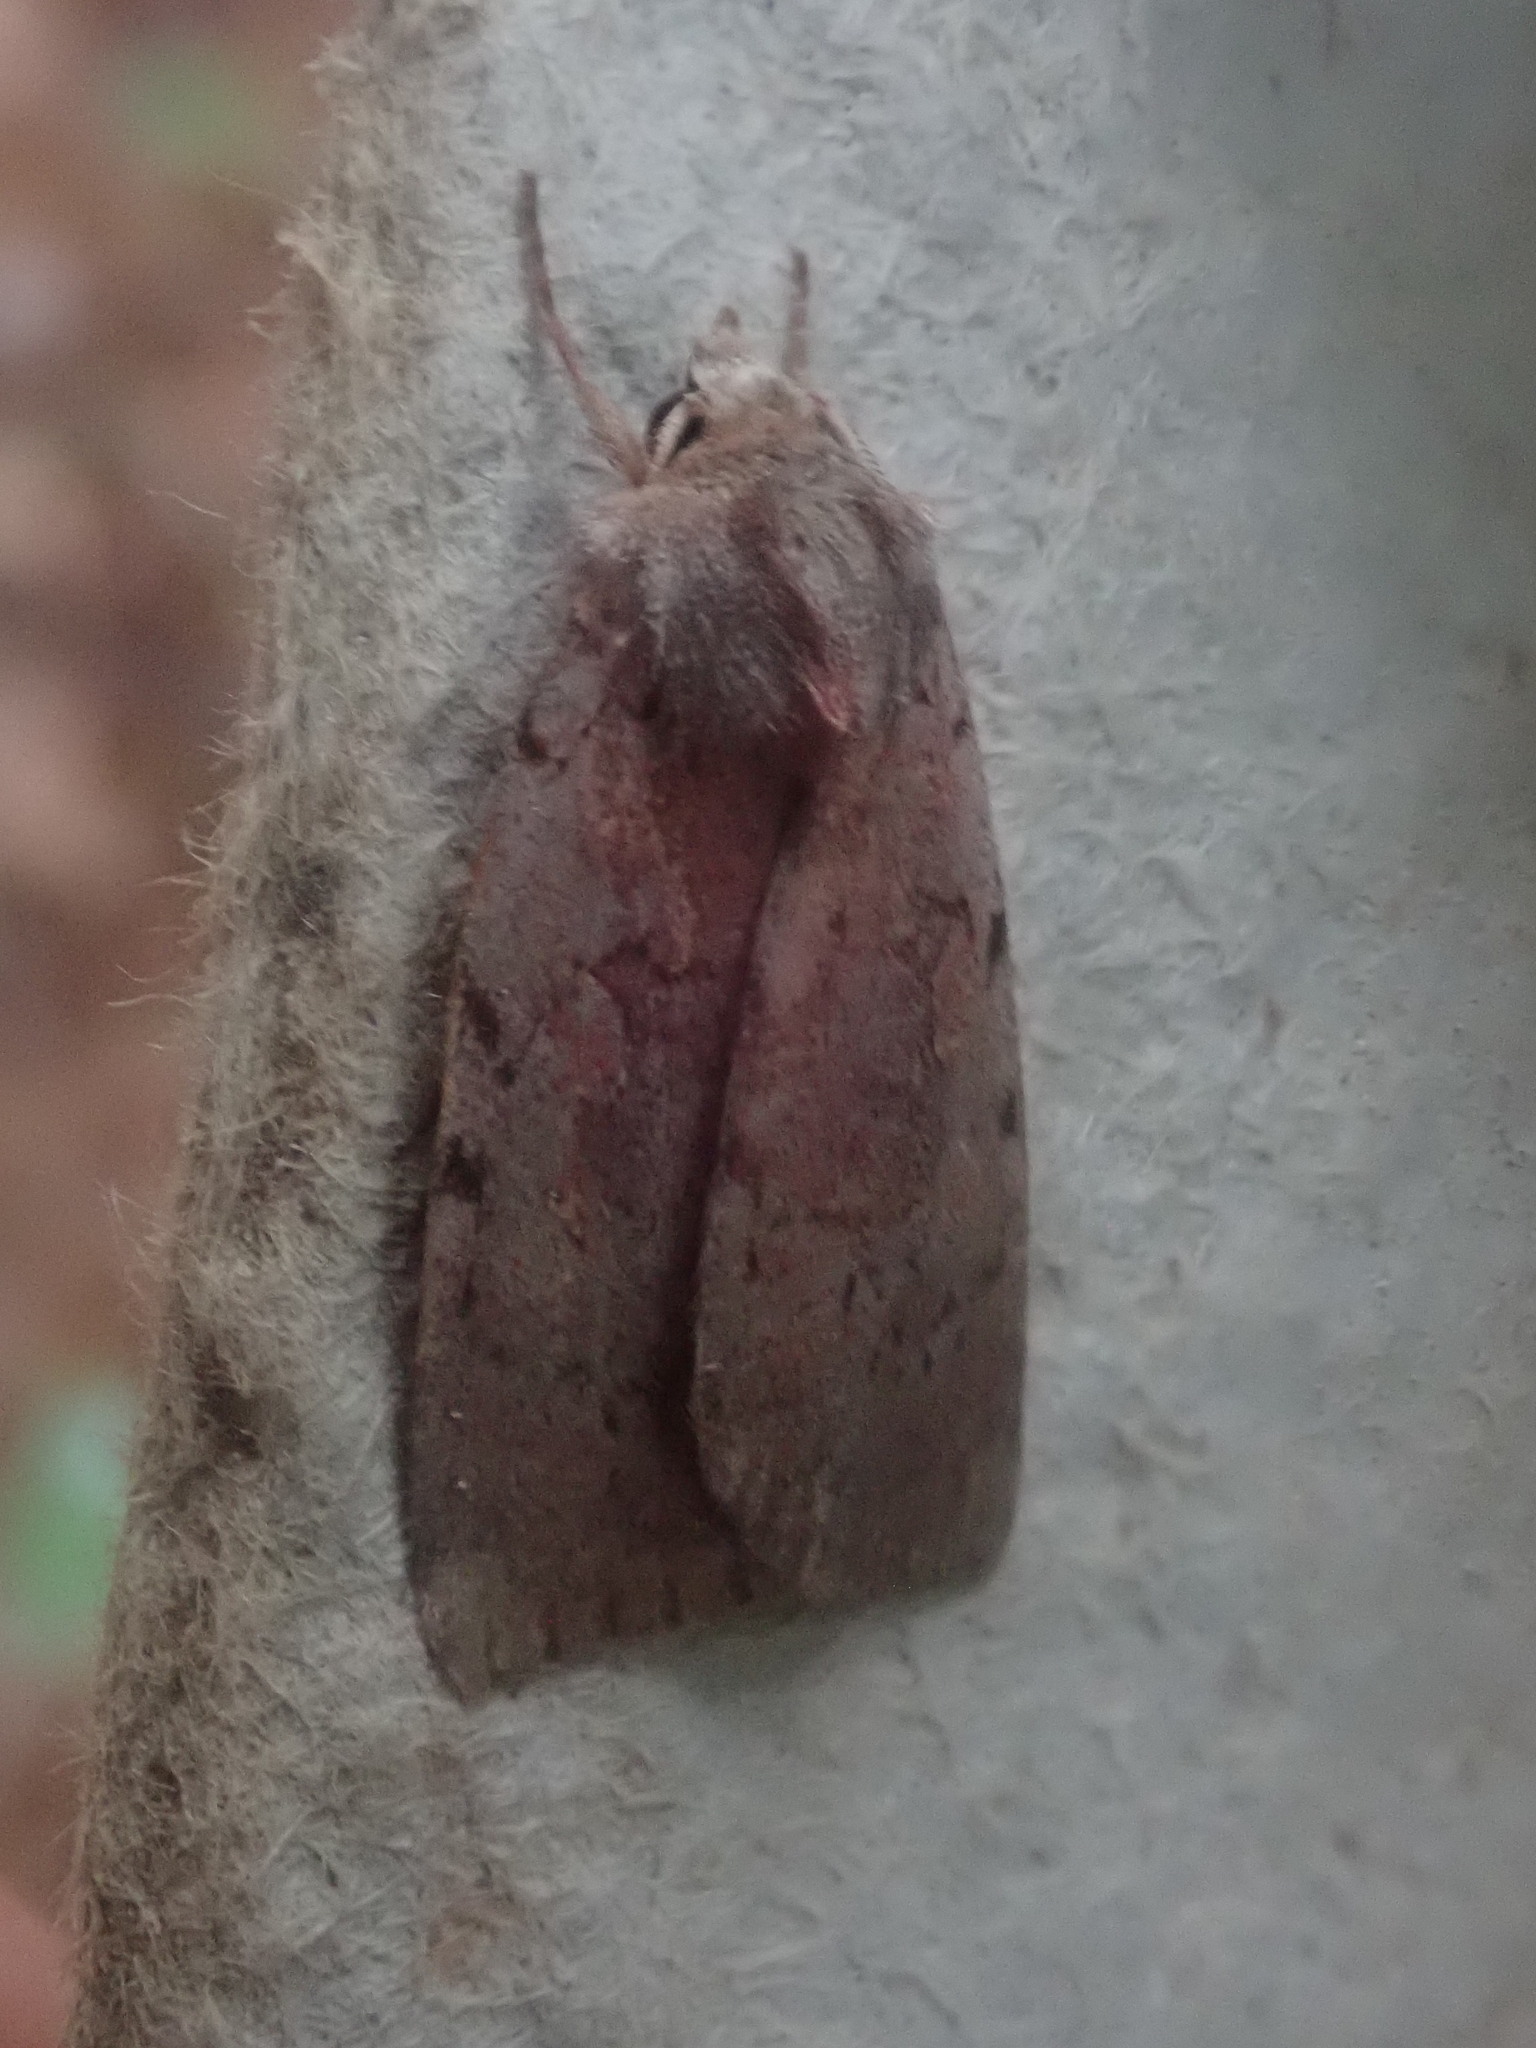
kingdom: Animalia
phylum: Arthropoda
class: Insecta
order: Lepidoptera
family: Noctuidae
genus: Xestia
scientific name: Xestia dilucida
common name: Dull reddish dart
